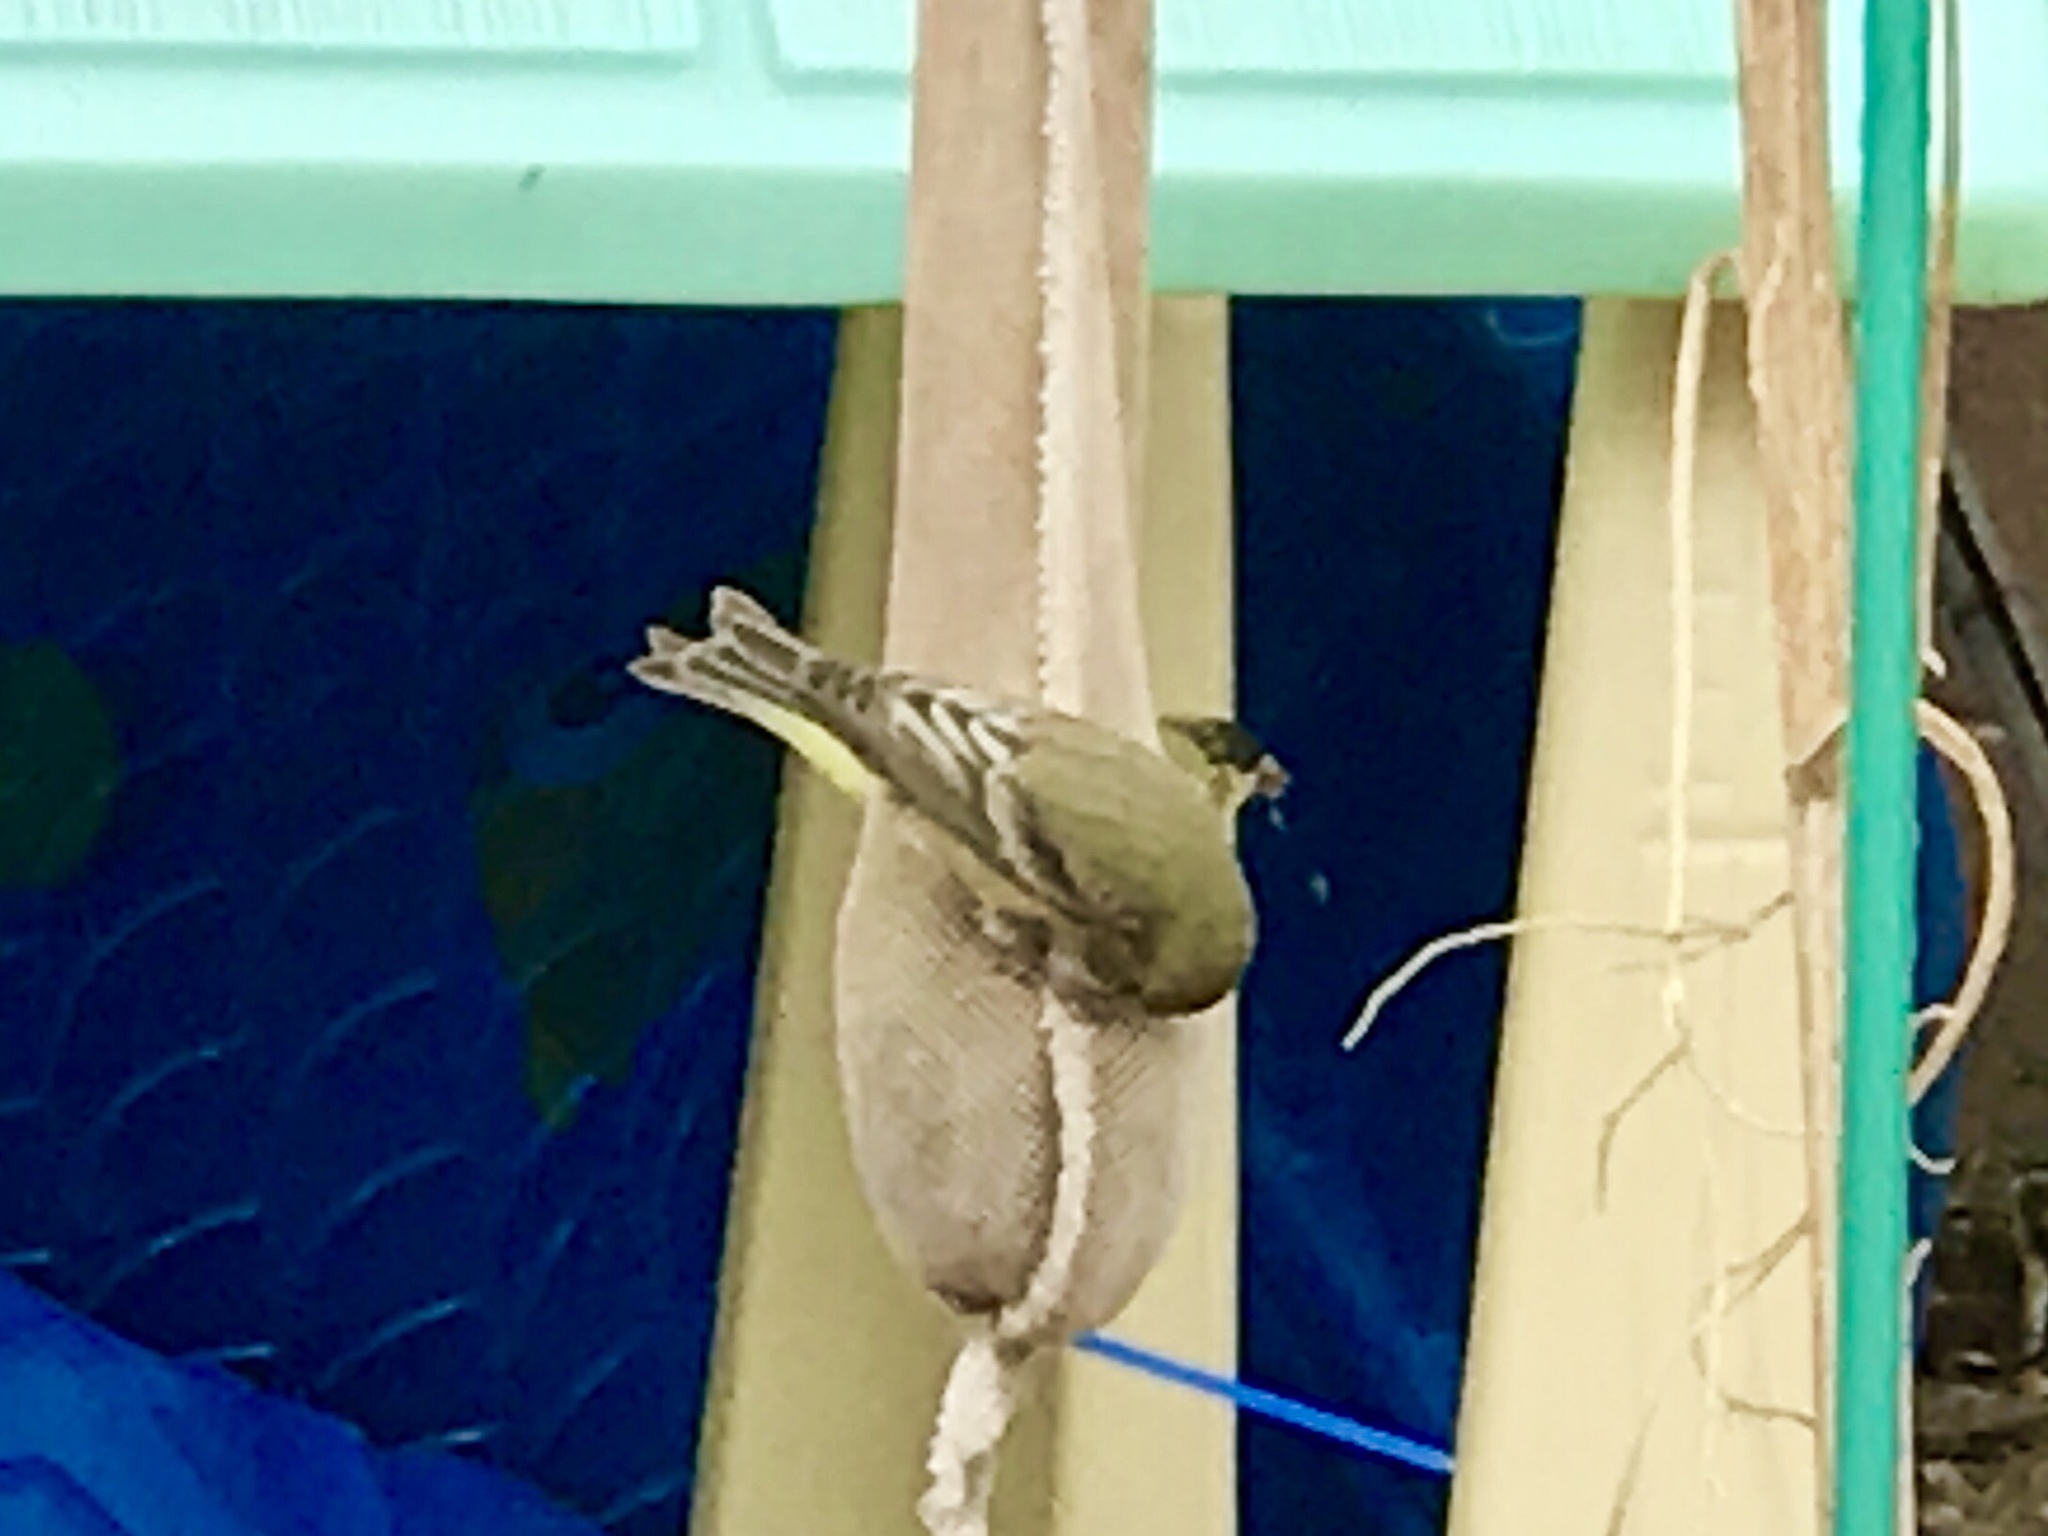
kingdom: Animalia
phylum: Chordata
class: Aves
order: Passeriformes
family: Fringillidae
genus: Spinus
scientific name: Spinus psaltria
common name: Lesser goldfinch
